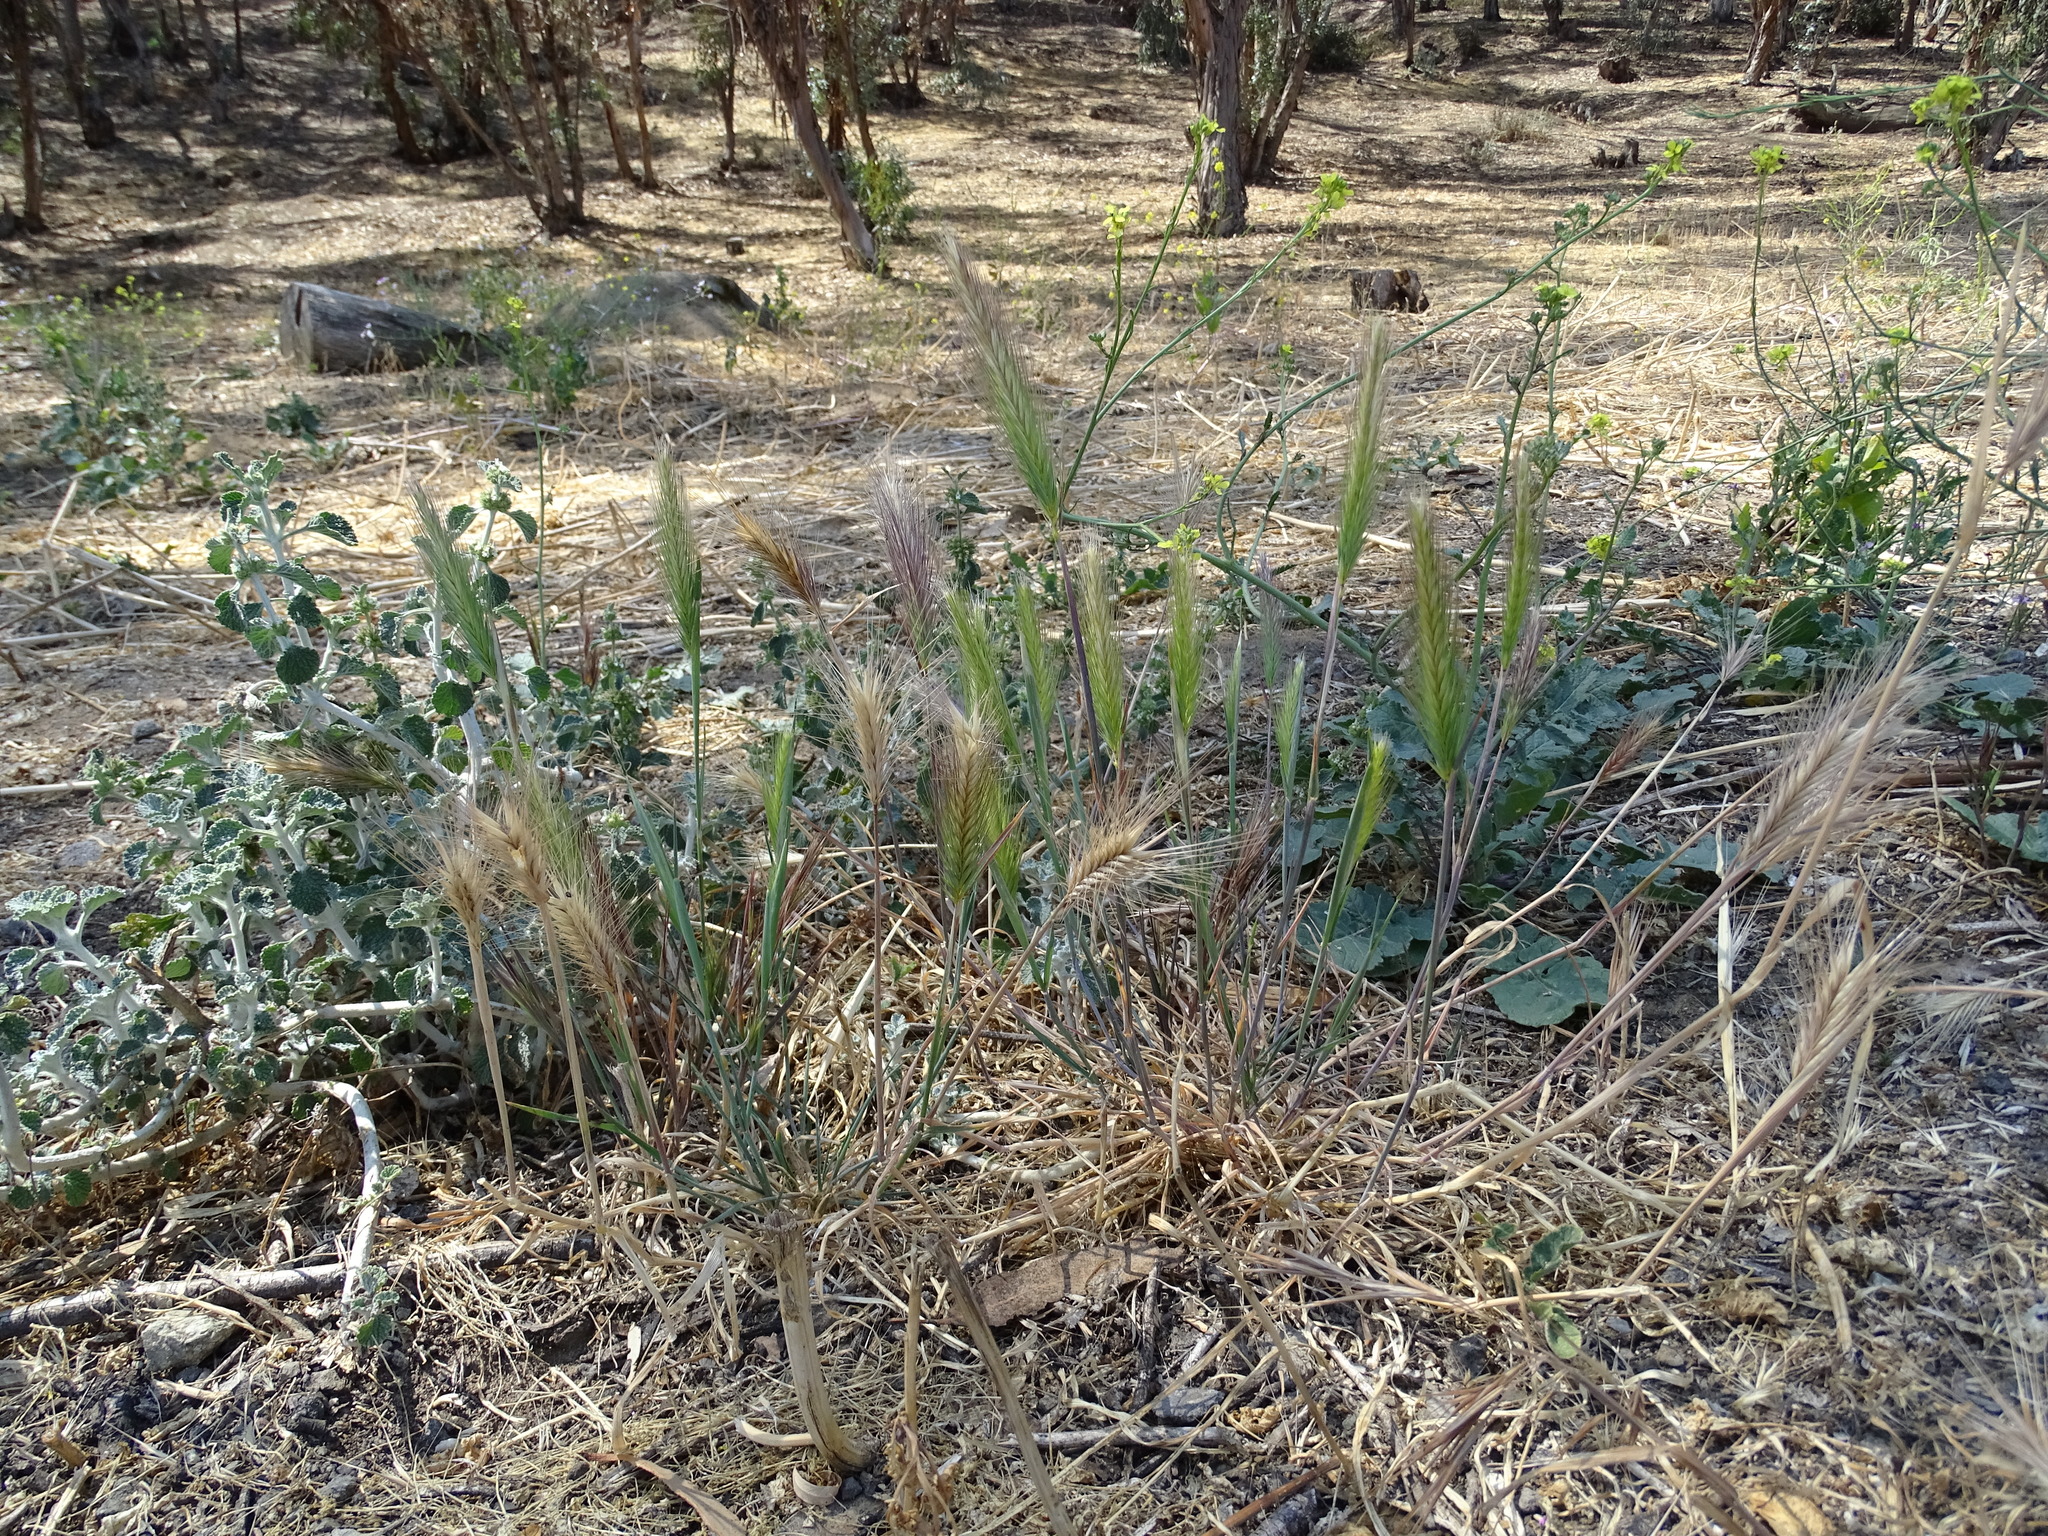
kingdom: Plantae
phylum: Tracheophyta
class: Liliopsida
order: Poales
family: Poaceae
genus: Hordeum
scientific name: Hordeum murinum
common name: Wall barley
